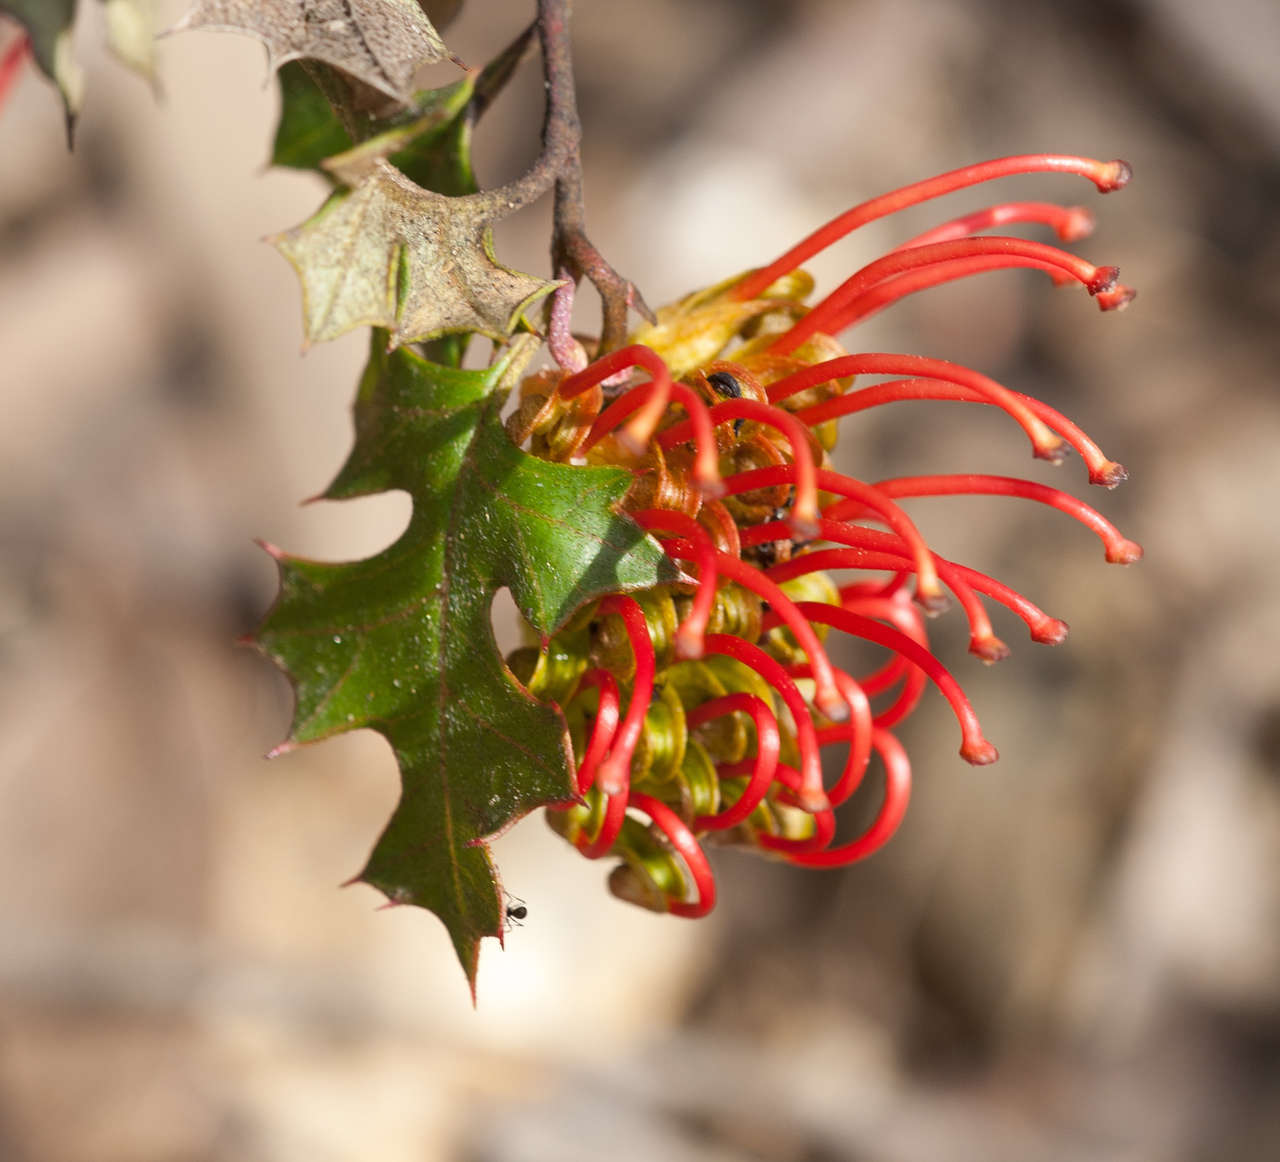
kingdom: Plantae
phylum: Tracheophyta
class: Magnoliopsida
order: Proteales
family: Proteaceae
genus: Grevillea
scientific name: Grevillea steiglitziana
